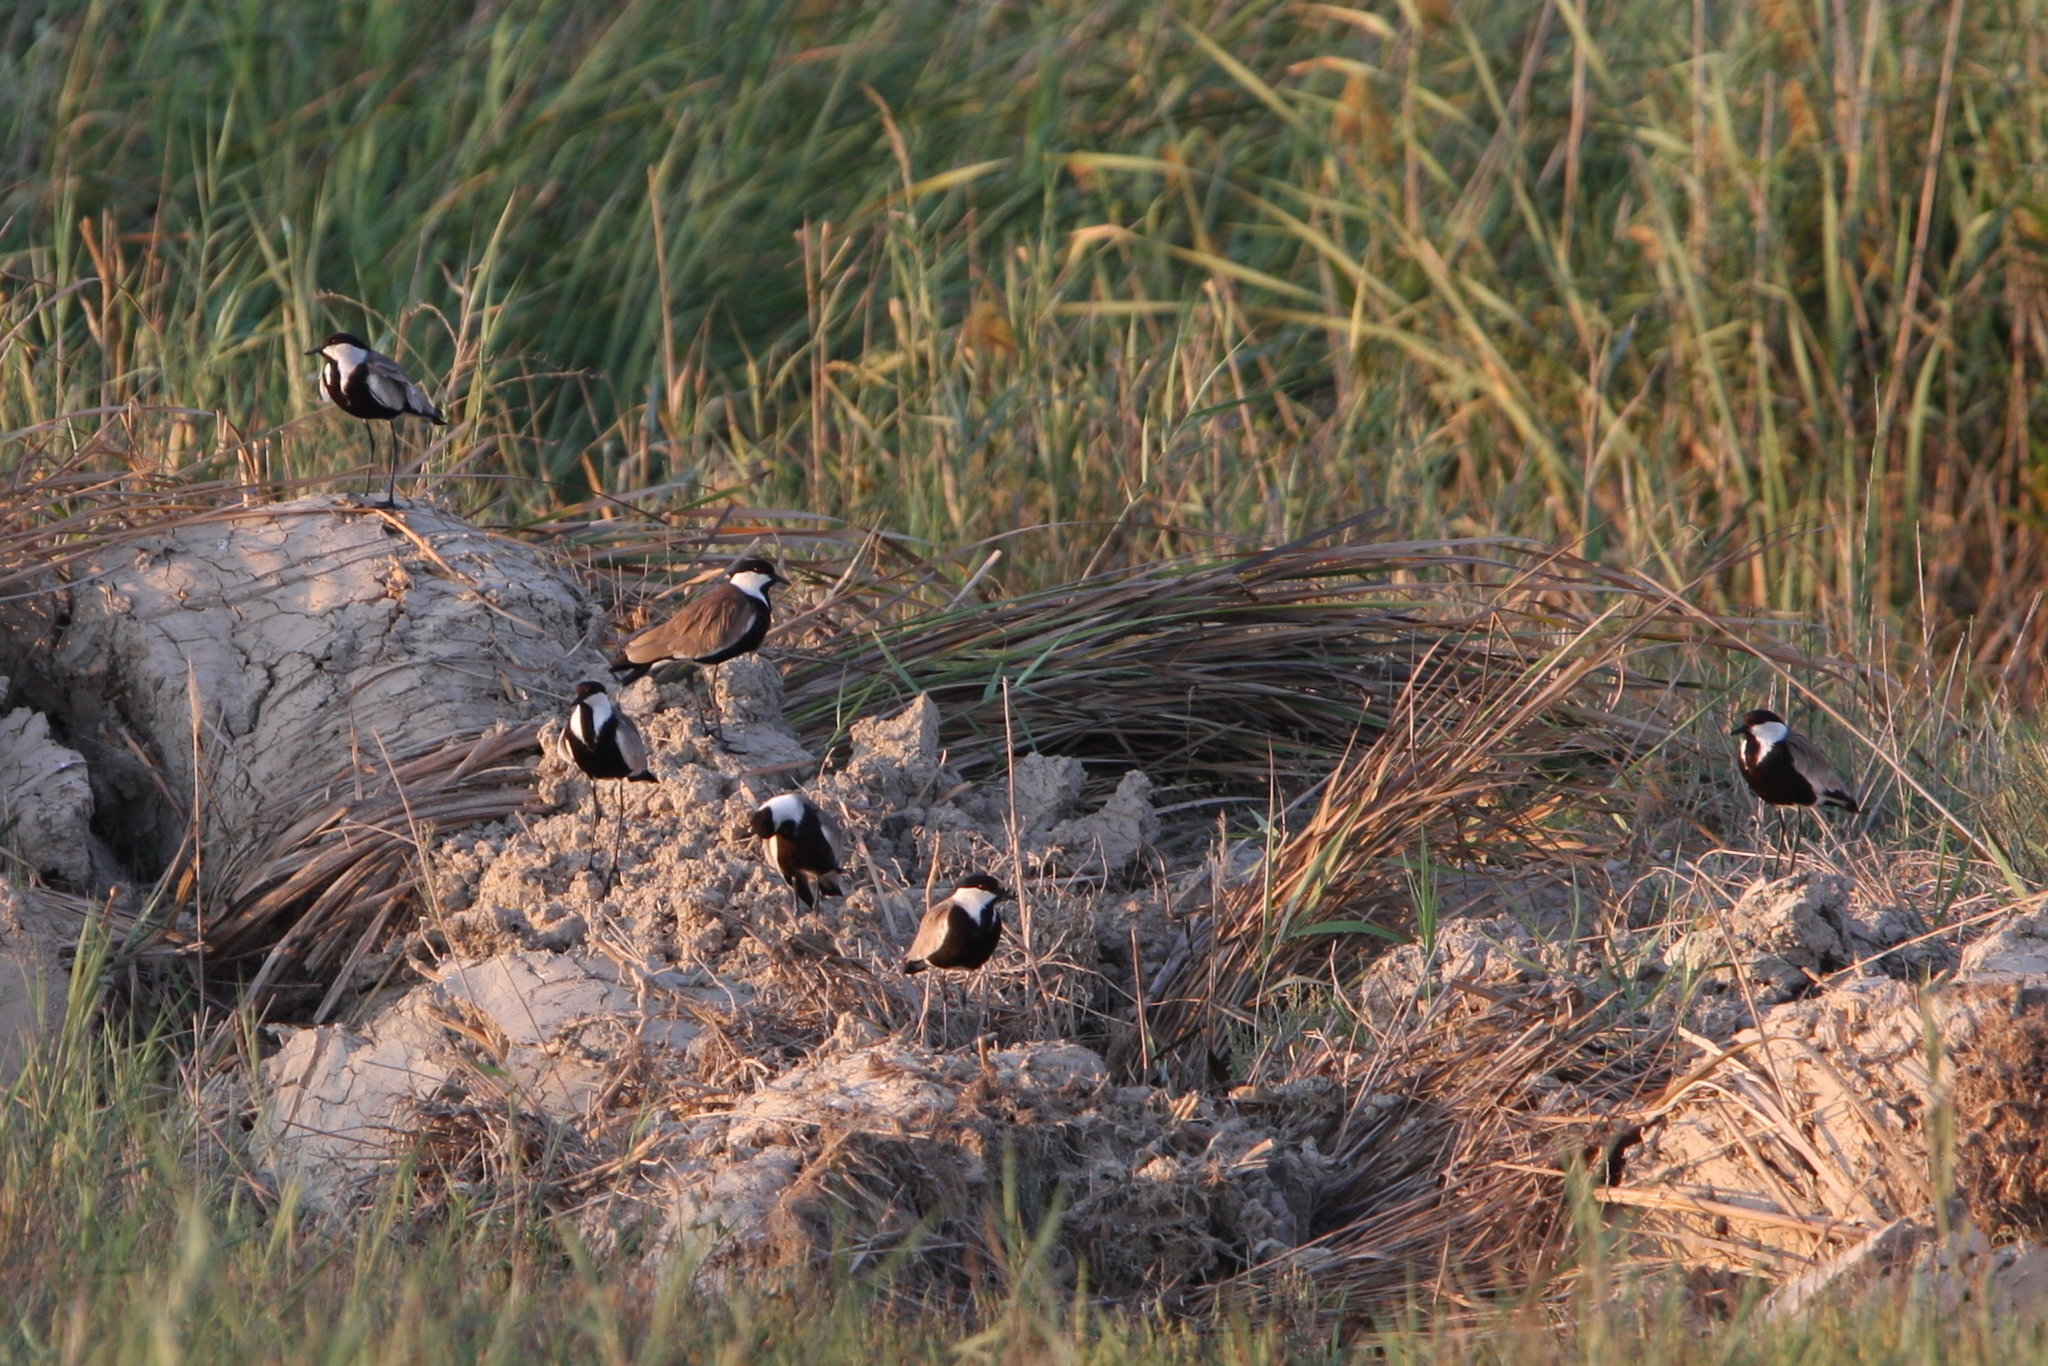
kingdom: Animalia
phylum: Chordata
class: Aves
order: Charadriiformes
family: Charadriidae
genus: Vanellus
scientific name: Vanellus spinosus
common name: Spur-winged lapwing
